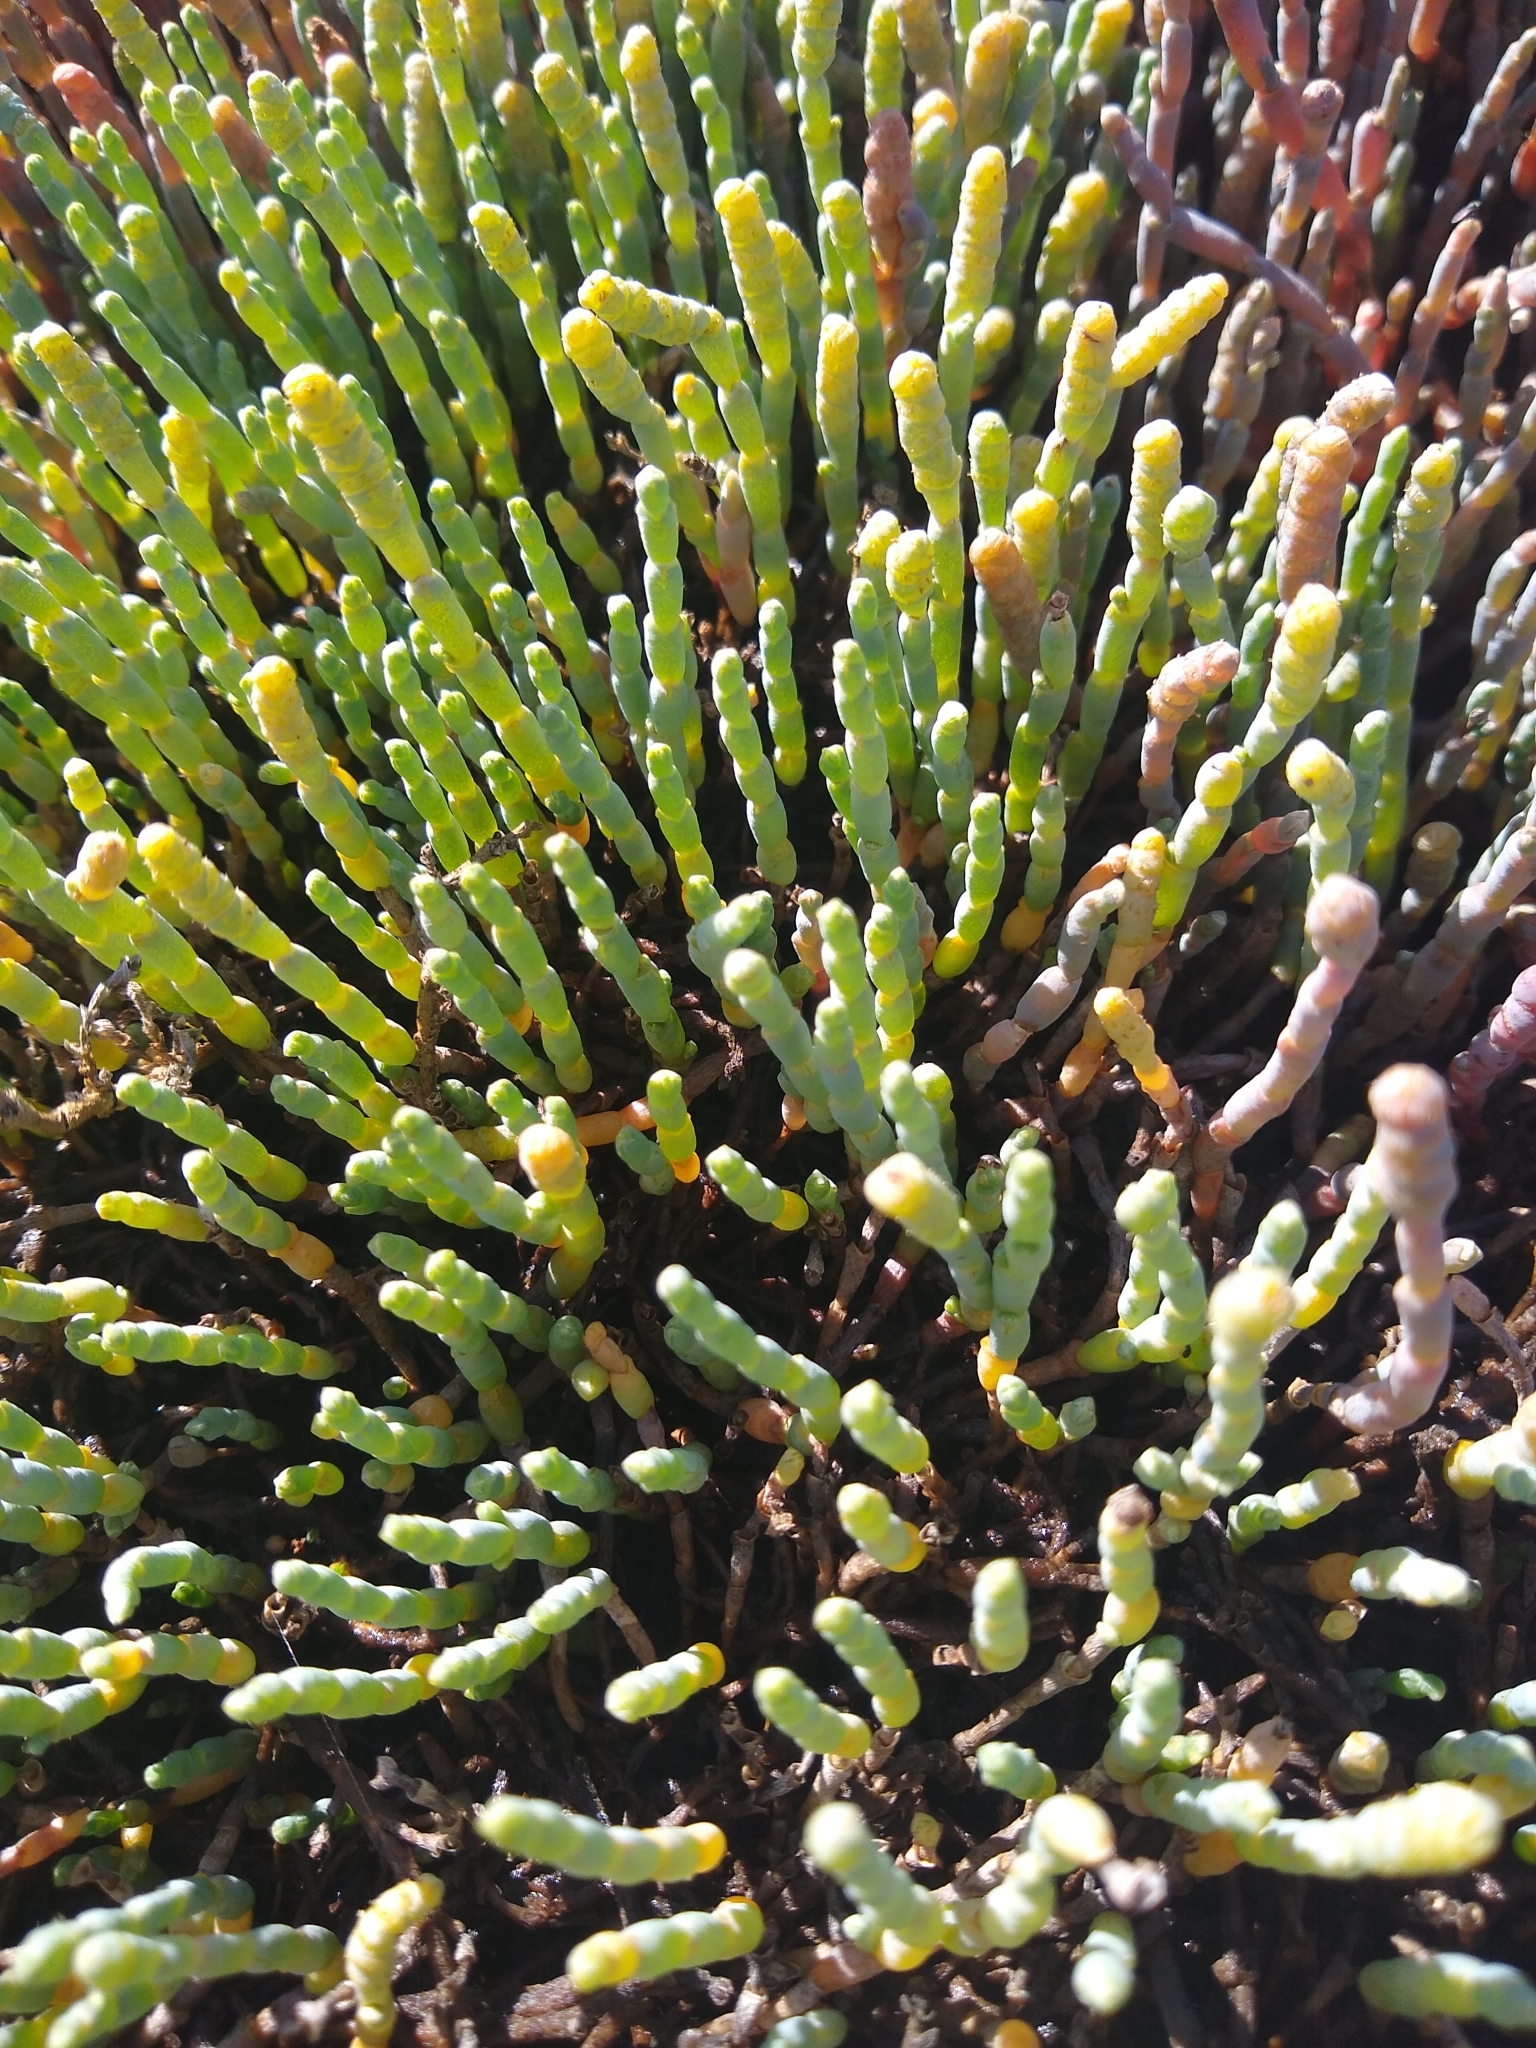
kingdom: Plantae
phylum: Tracheophyta
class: Magnoliopsida
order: Caryophyllales
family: Amaranthaceae
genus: Salicornia
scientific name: Salicornia quinqueflora
